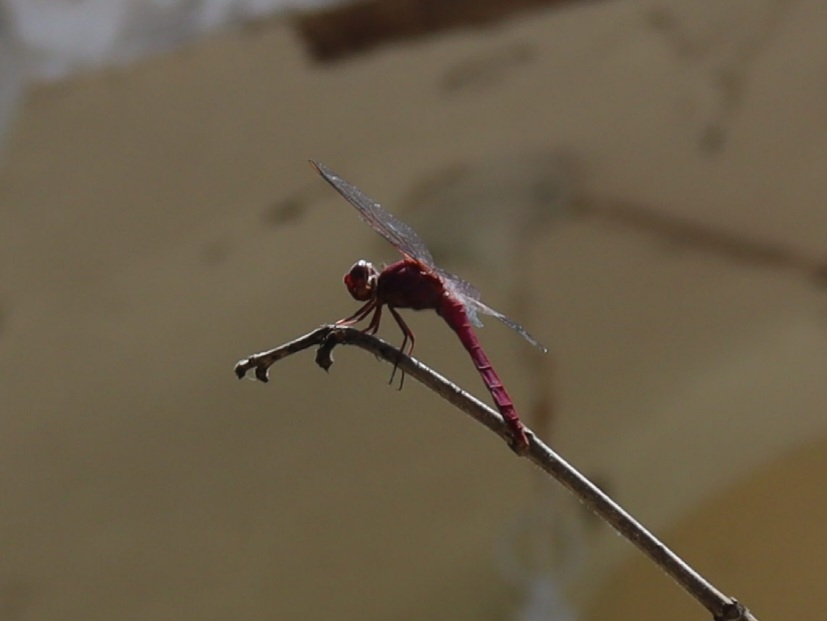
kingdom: Animalia
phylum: Arthropoda
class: Insecta
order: Odonata
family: Libellulidae
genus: Orthemis
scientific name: Orthemis discolor
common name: Carmine skimmer
